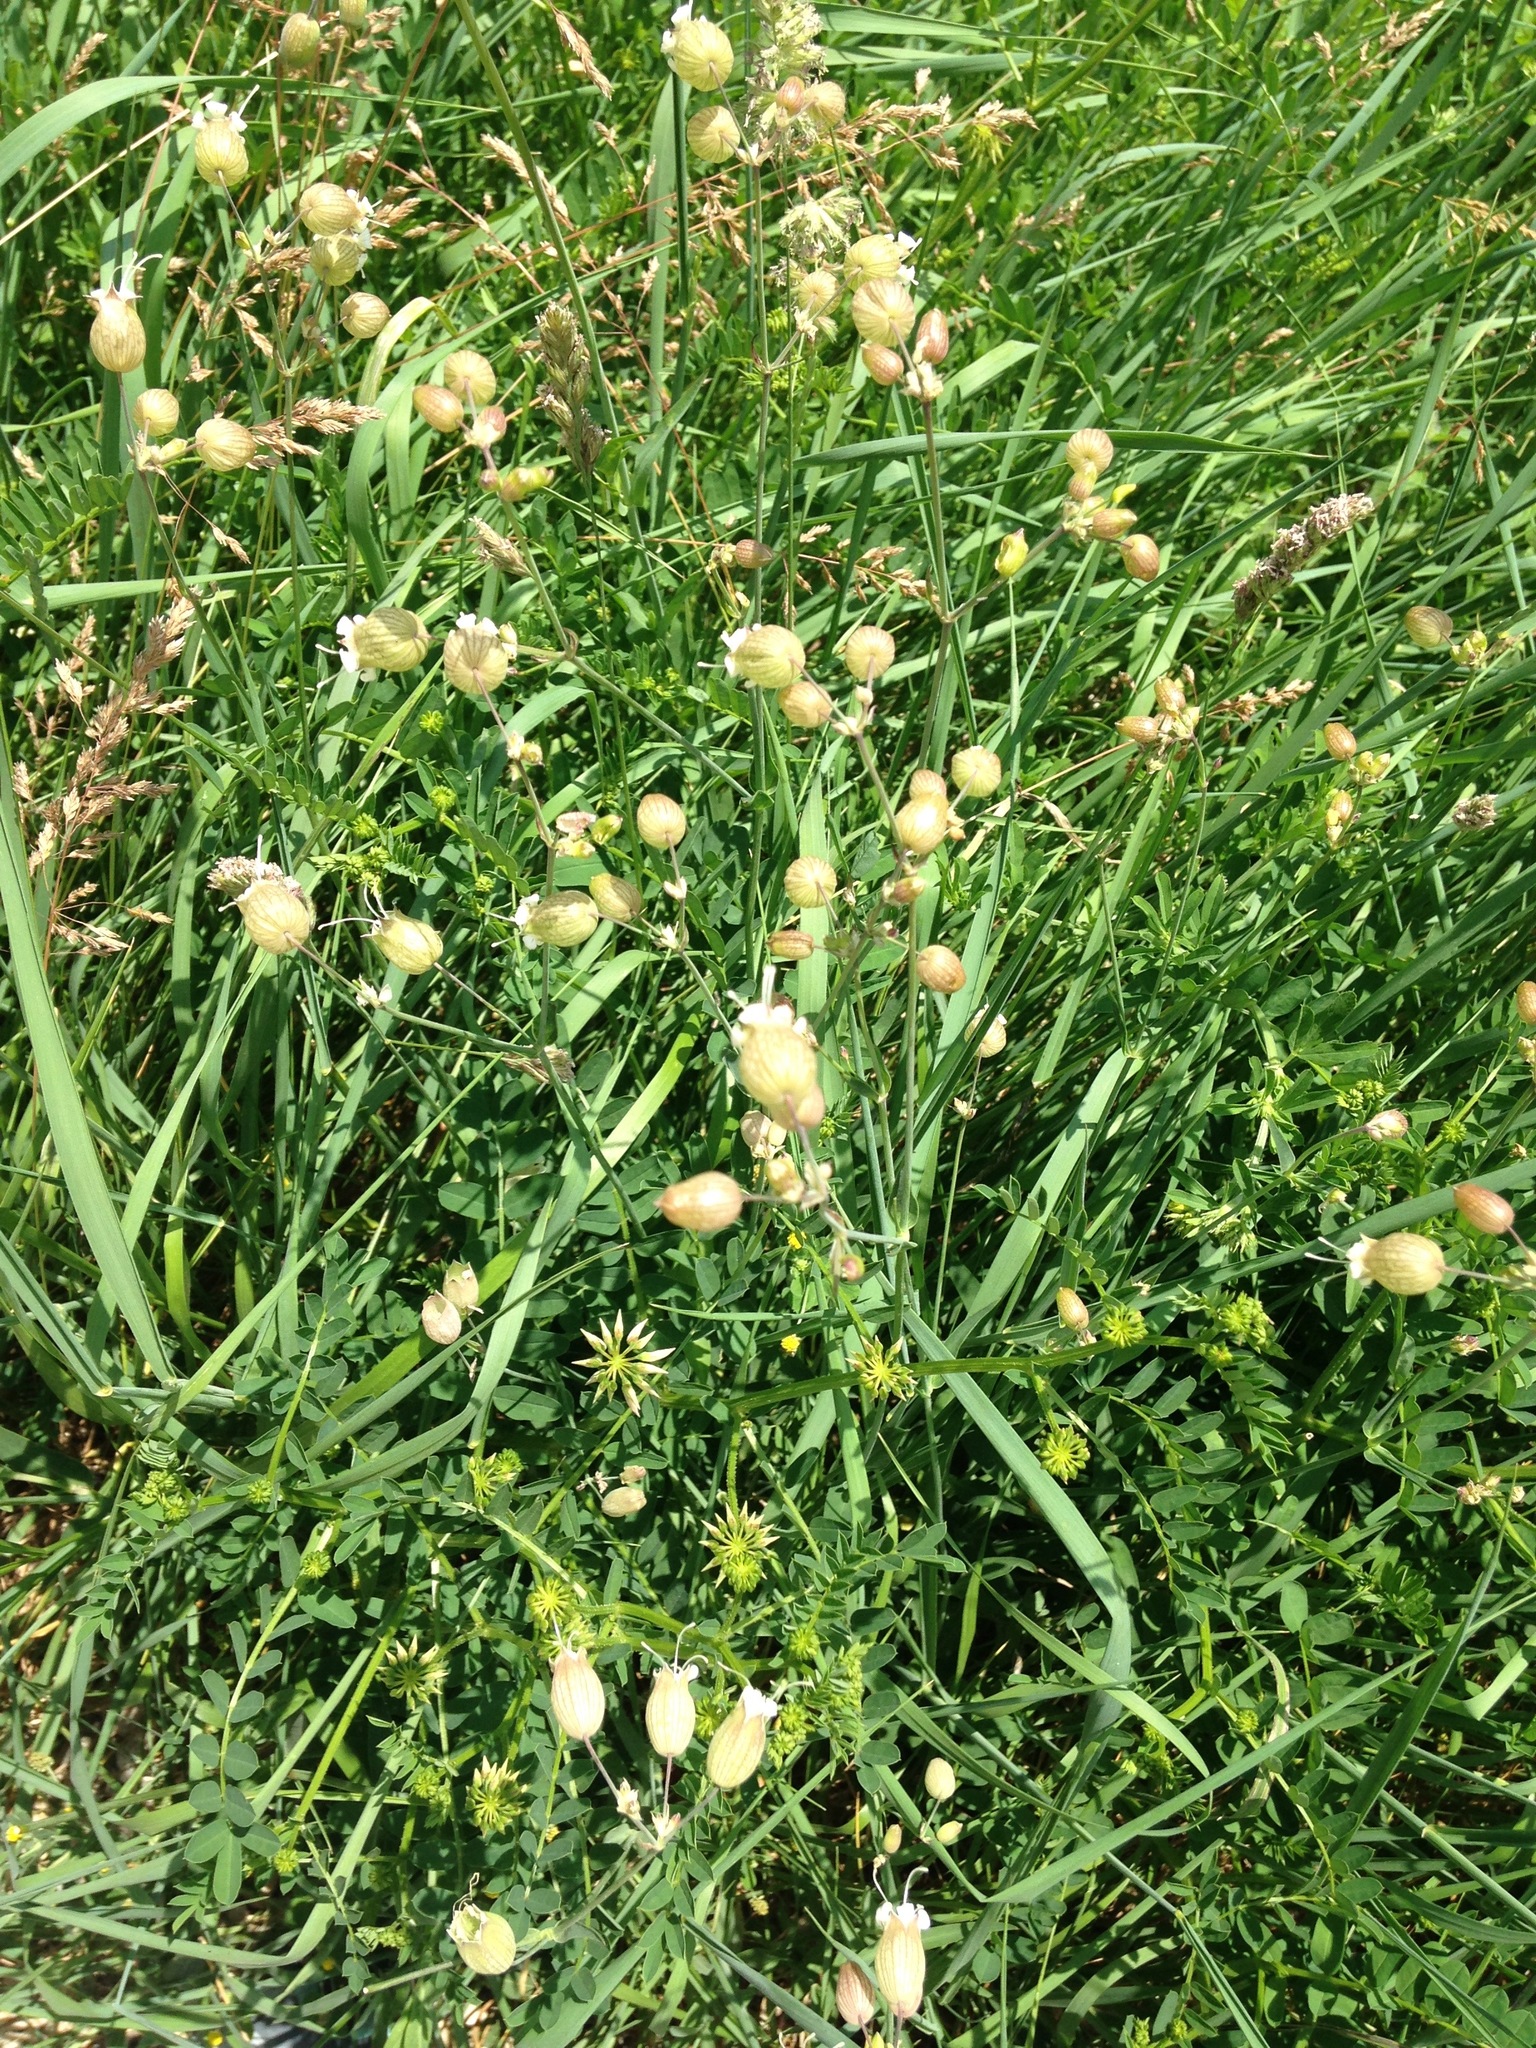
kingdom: Plantae
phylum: Tracheophyta
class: Magnoliopsida
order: Caryophyllales
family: Caryophyllaceae
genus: Silene
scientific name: Silene vulgaris
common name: Bladder campion
